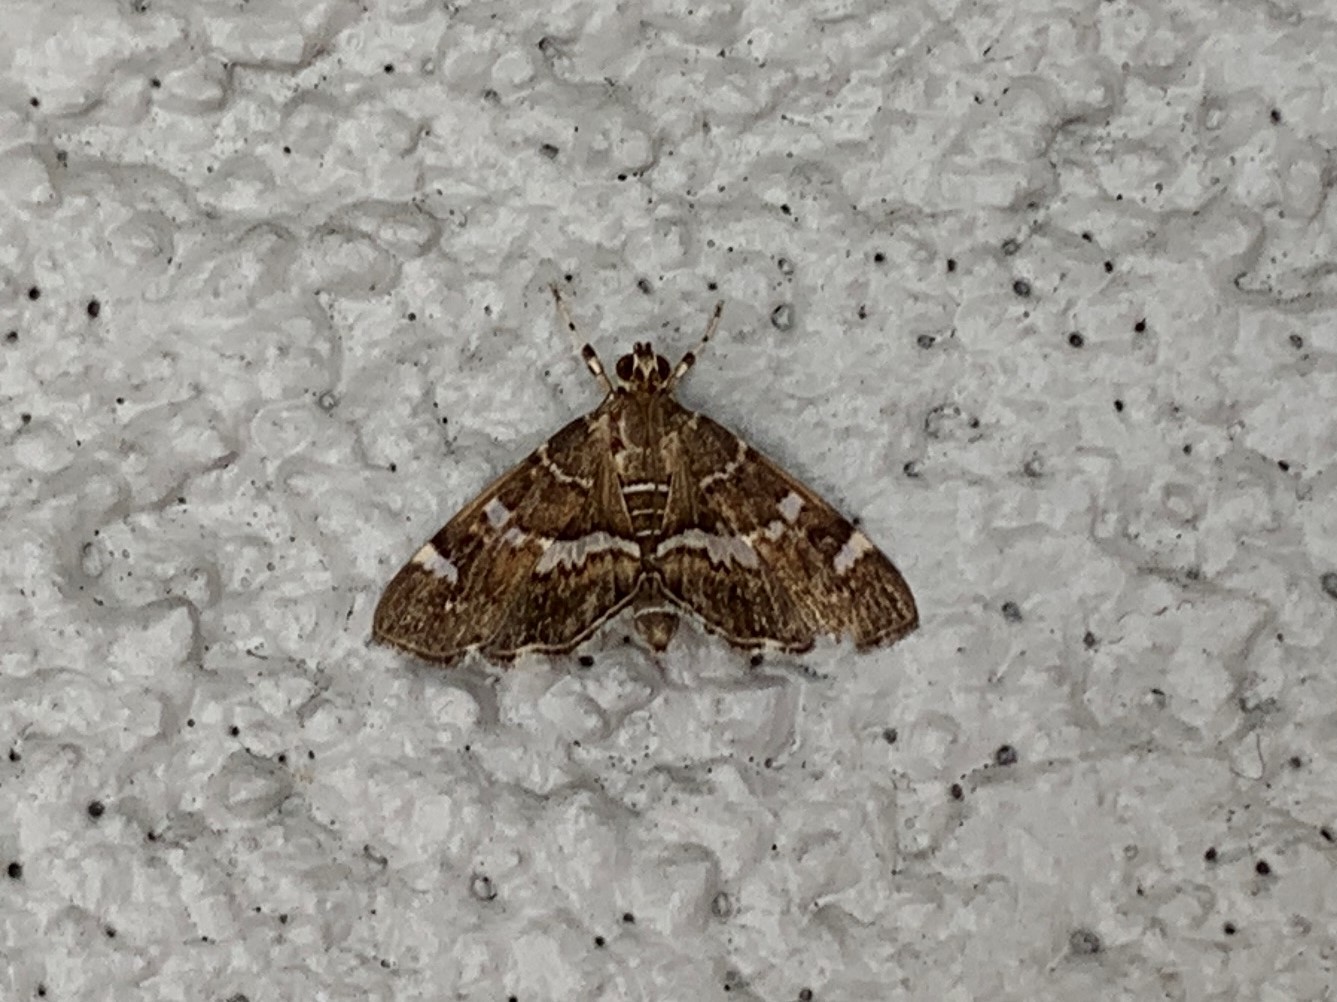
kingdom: Animalia
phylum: Arthropoda
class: Insecta
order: Lepidoptera
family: Crambidae
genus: Hymenia
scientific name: Hymenia perspectalis
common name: Spotted beet webworm
